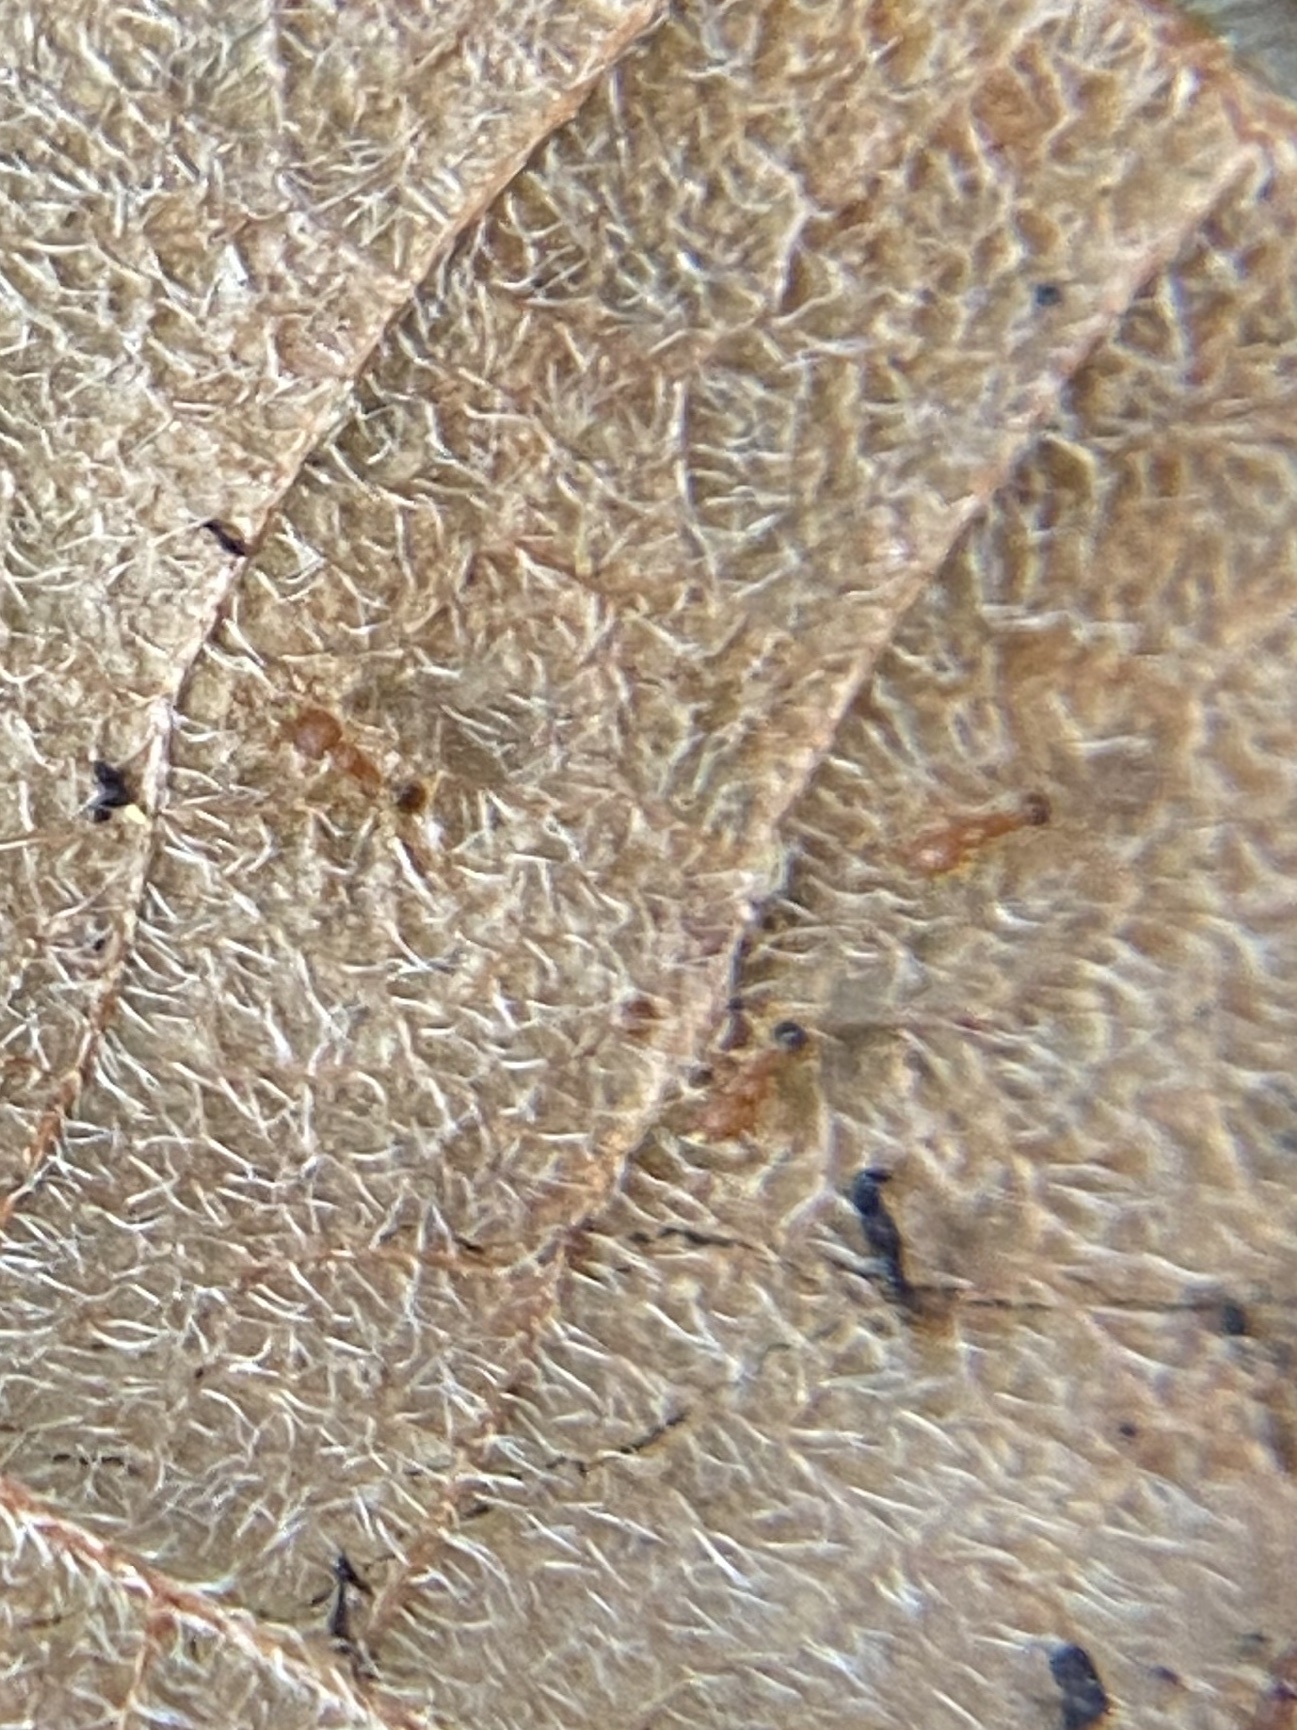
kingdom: Animalia
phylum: Arthropoda
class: Insecta
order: Hymenoptera
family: Formicidae
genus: Pheidole
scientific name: Pheidole parva
